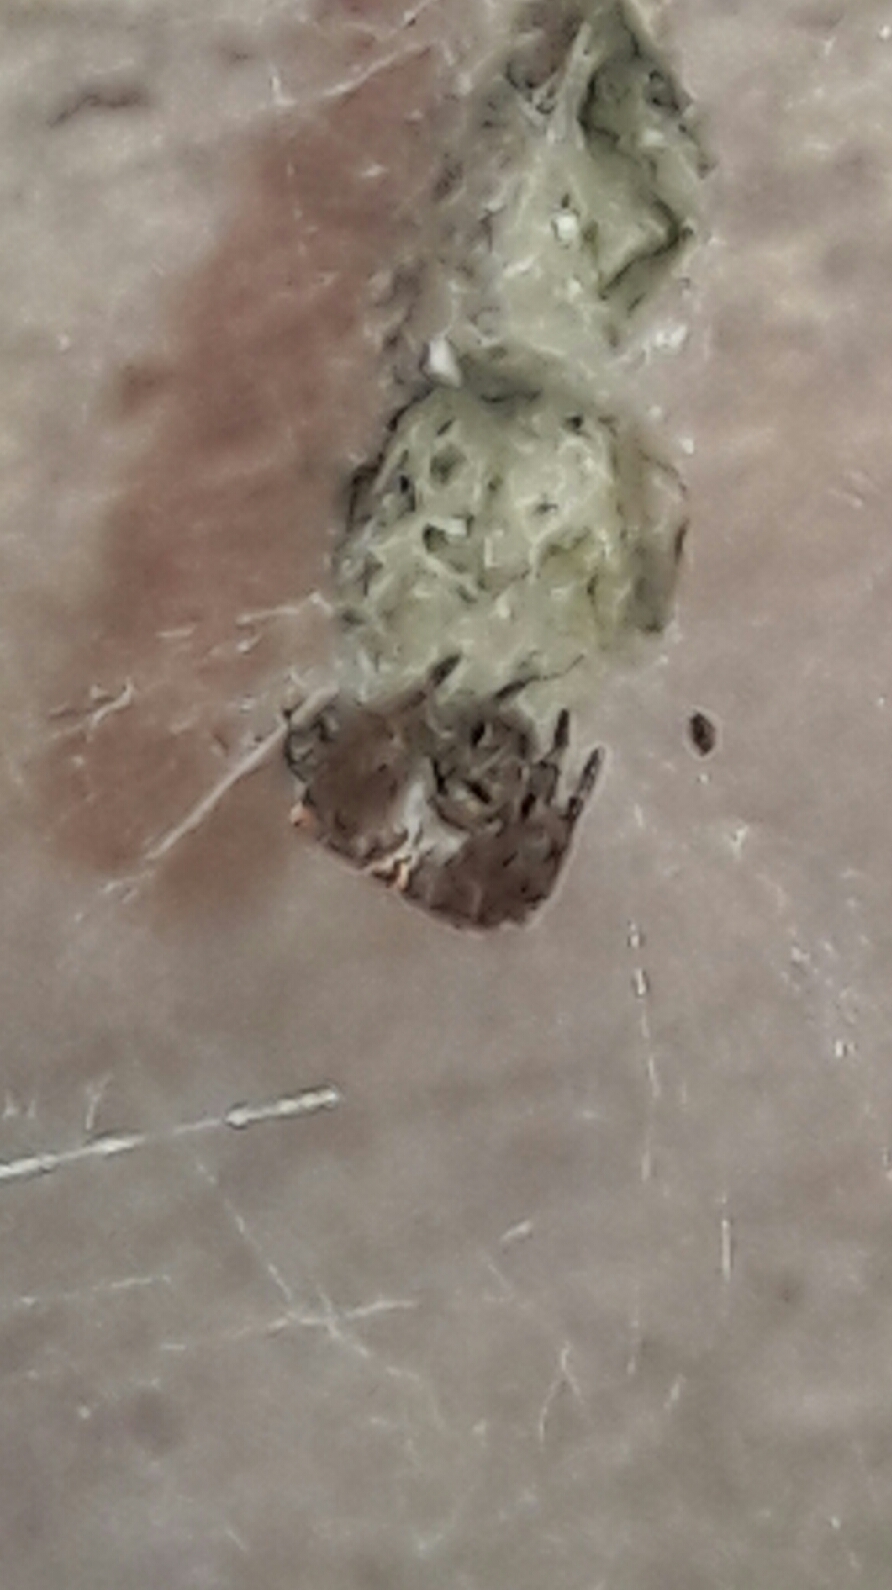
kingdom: Animalia
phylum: Arthropoda
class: Arachnida
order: Araneae
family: Araneidae
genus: Cyrtophora
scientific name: Cyrtophora citricola
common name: Orb weavers
